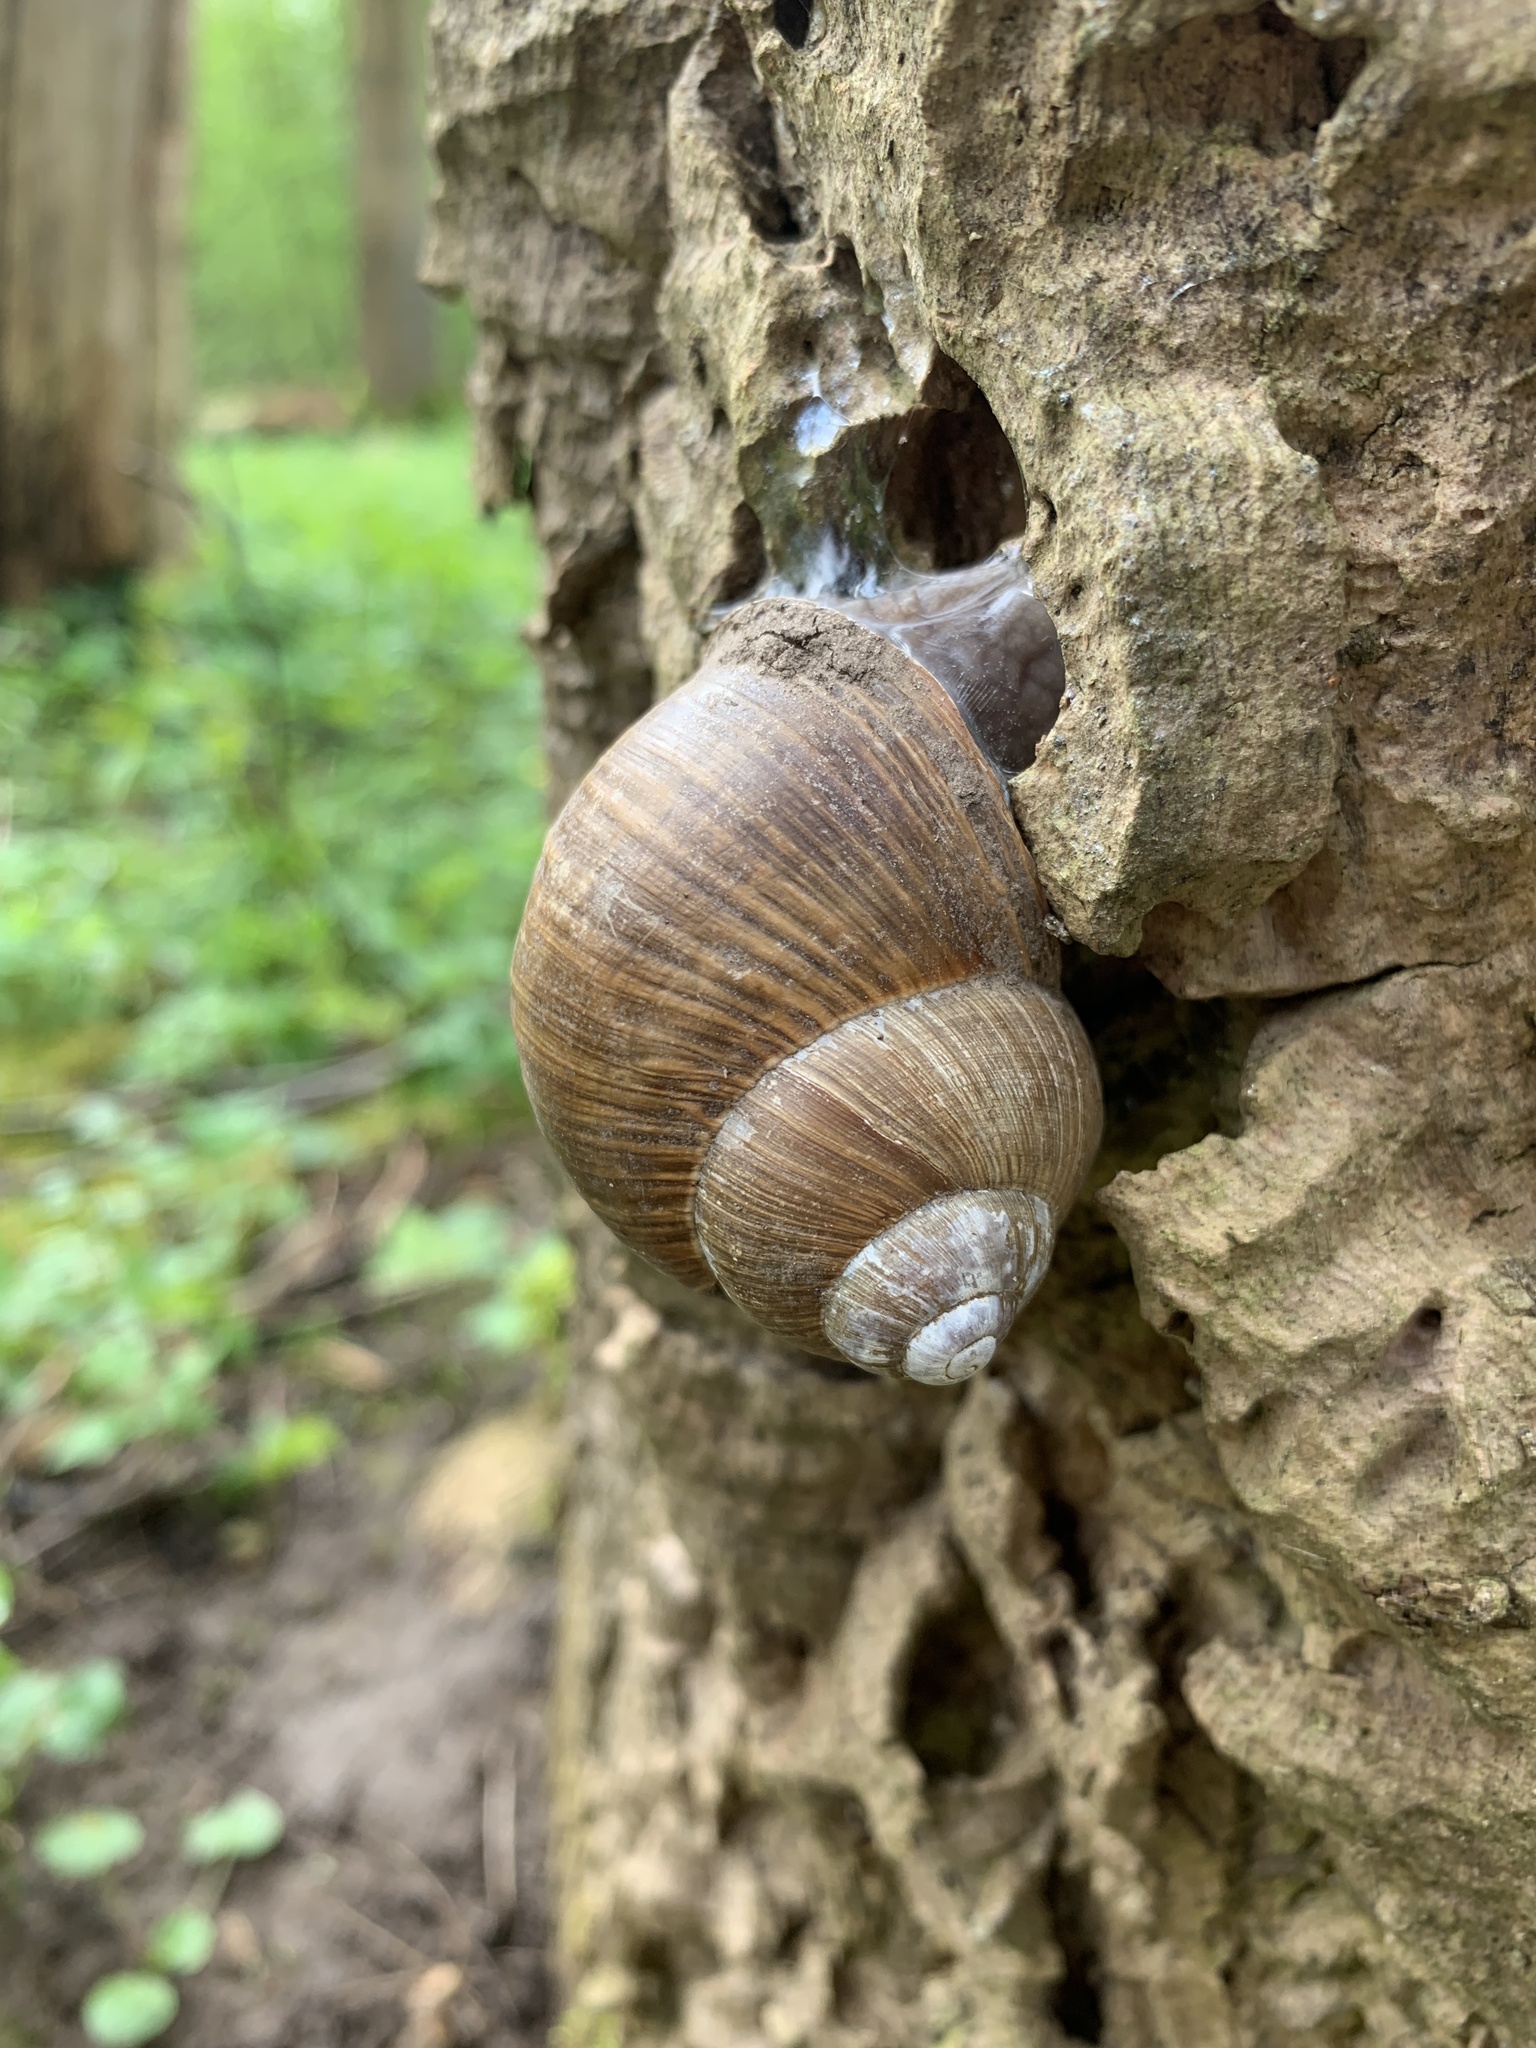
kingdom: Animalia
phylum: Mollusca
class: Gastropoda
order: Stylommatophora
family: Helicidae
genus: Helix
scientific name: Helix pomatia
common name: Roman snail
